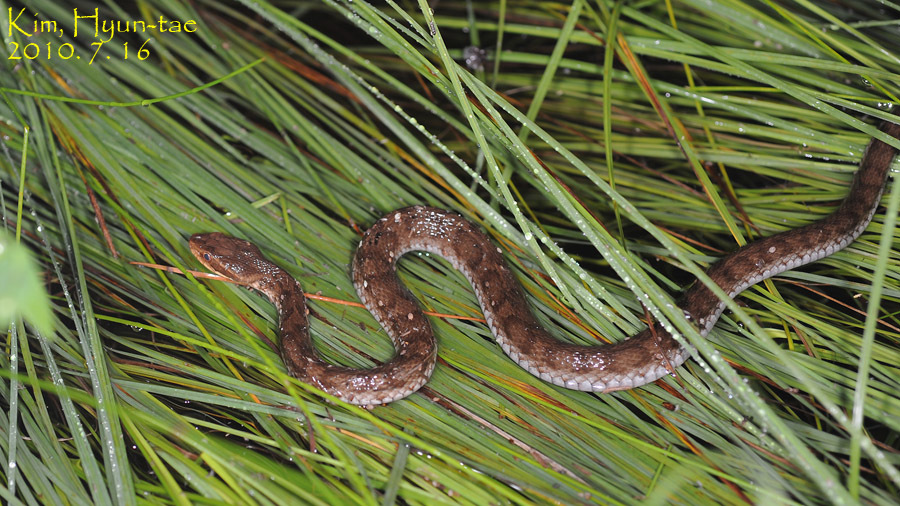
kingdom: Animalia
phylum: Chordata
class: Squamata
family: Viperidae
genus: Gloydius
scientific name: Gloydius ussuriensis
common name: Ussuri mamushi
